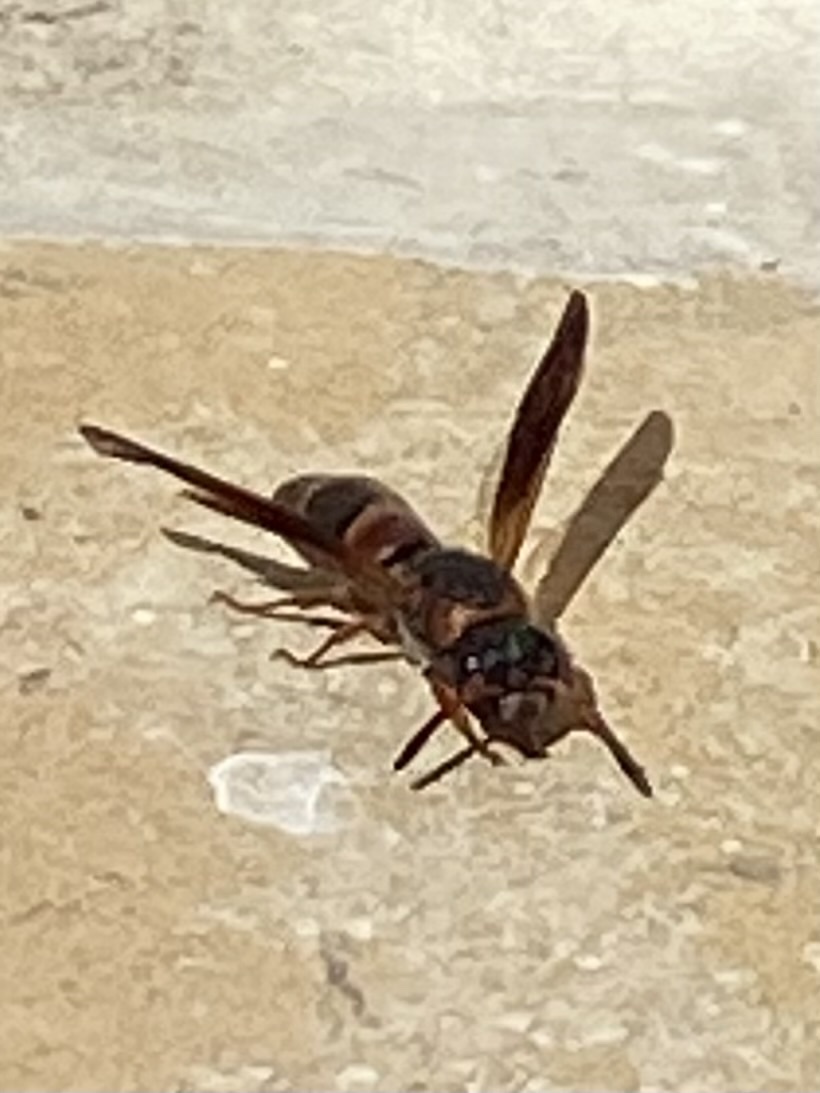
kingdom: Animalia
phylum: Arthropoda
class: Insecta
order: Hymenoptera
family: Eumenidae
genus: Pachodynerus
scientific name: Pachodynerus erynnis
